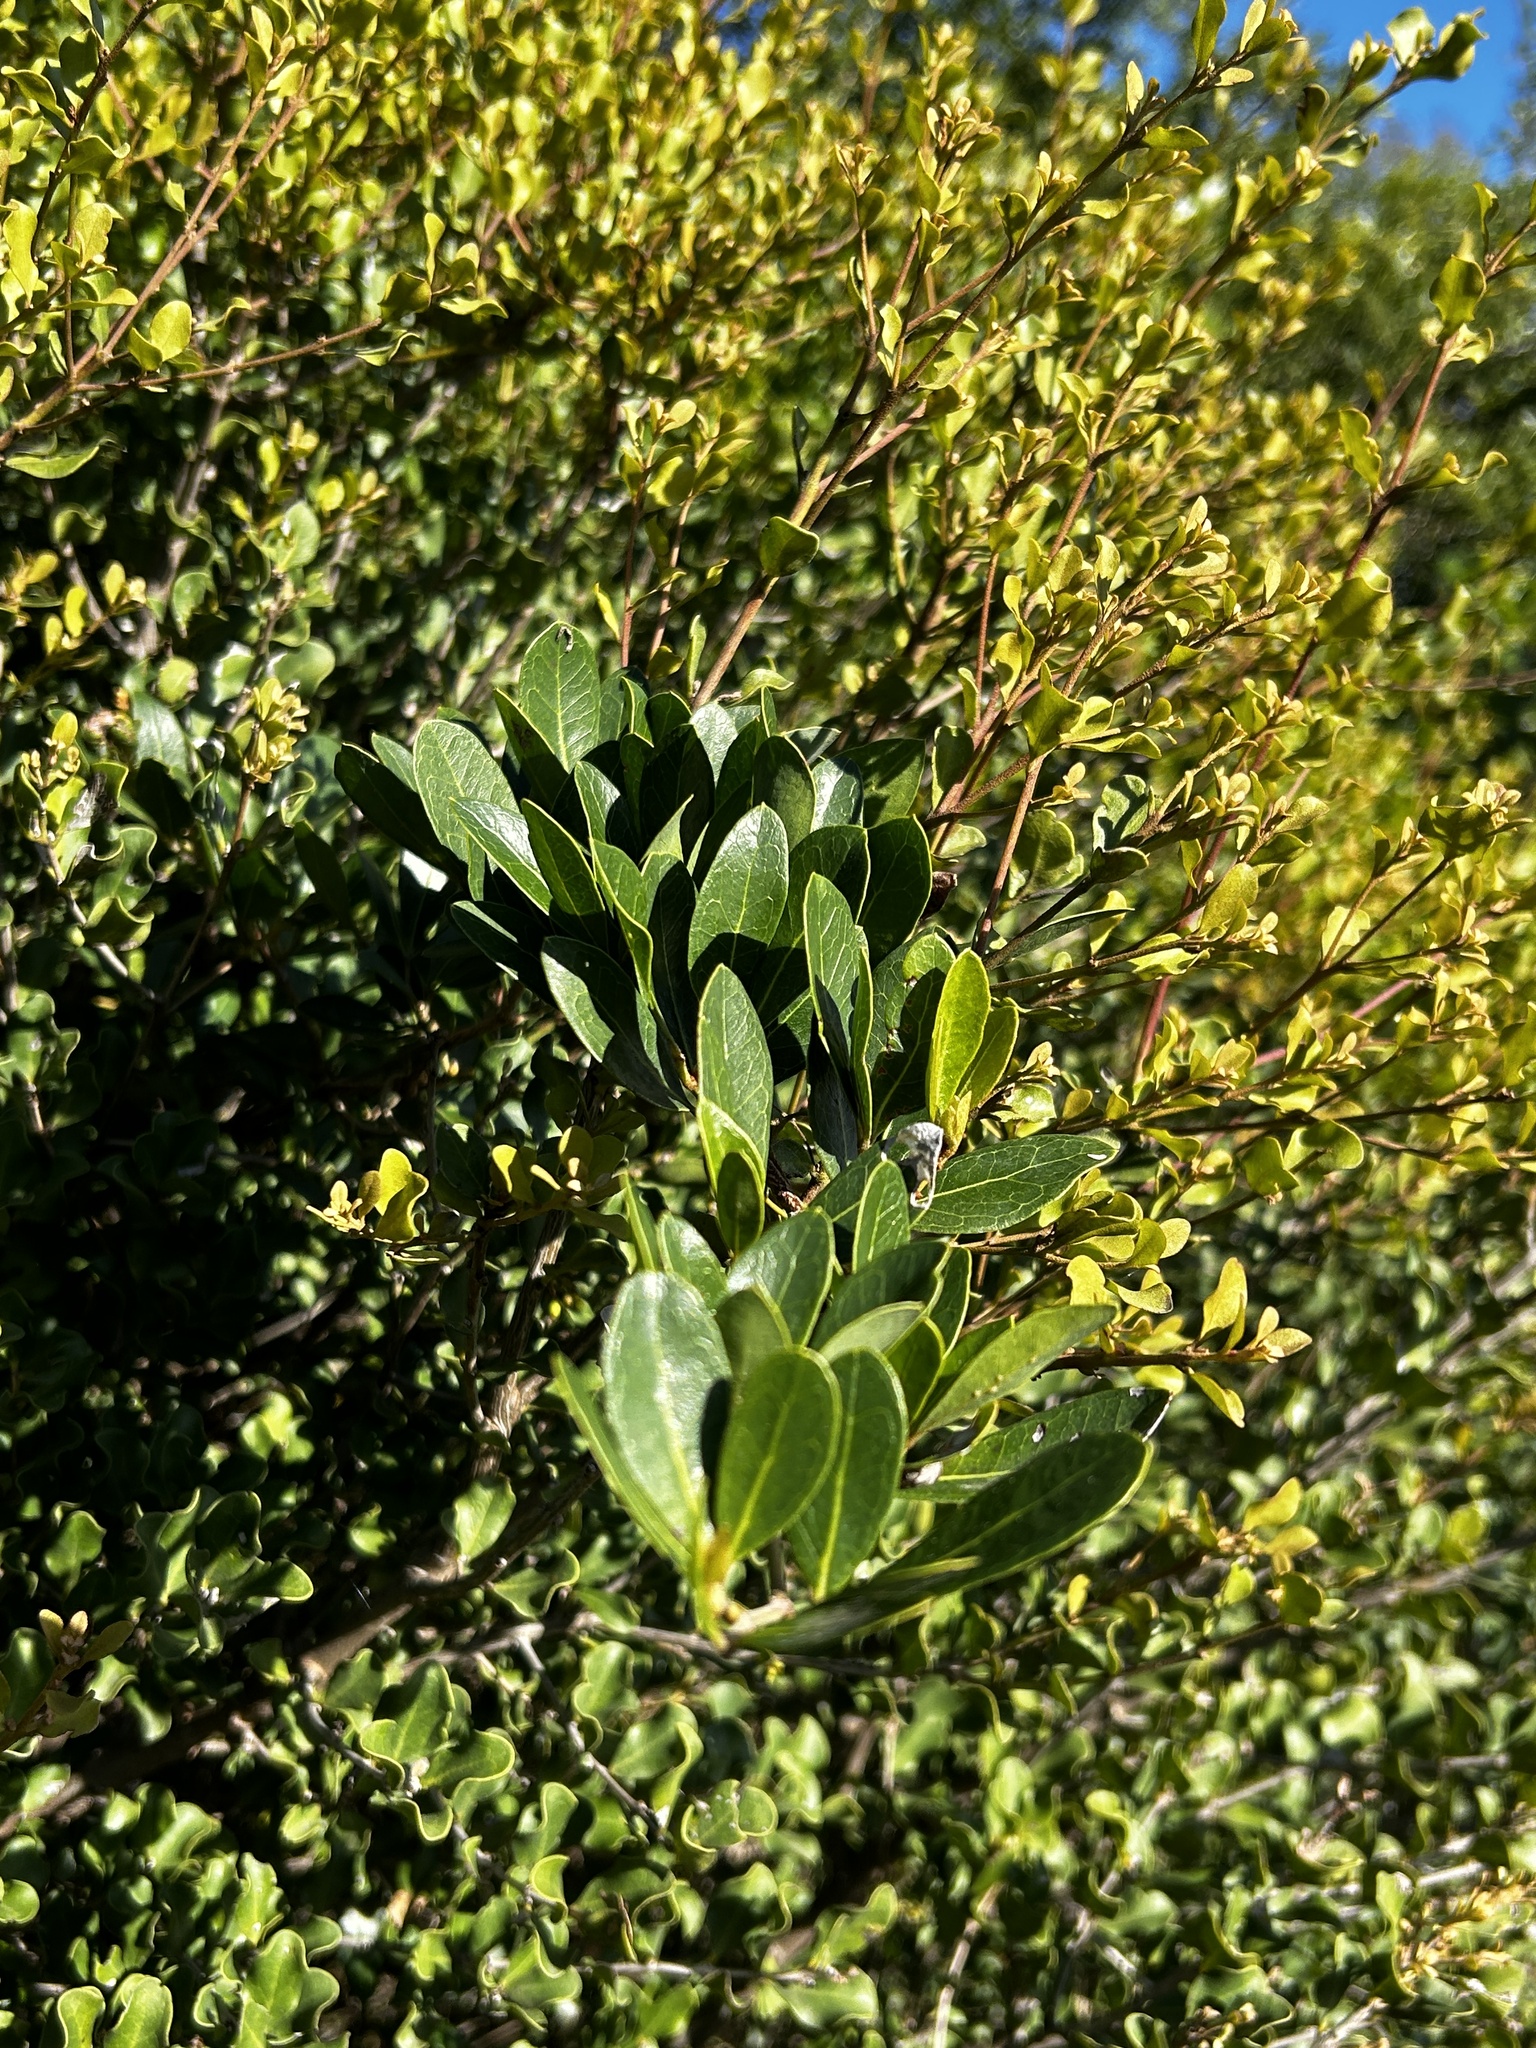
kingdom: Plantae
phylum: Tracheophyta
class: Magnoliopsida
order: Vitales
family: Vitaceae
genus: Rhoicissus
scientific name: Rhoicissus digitata
